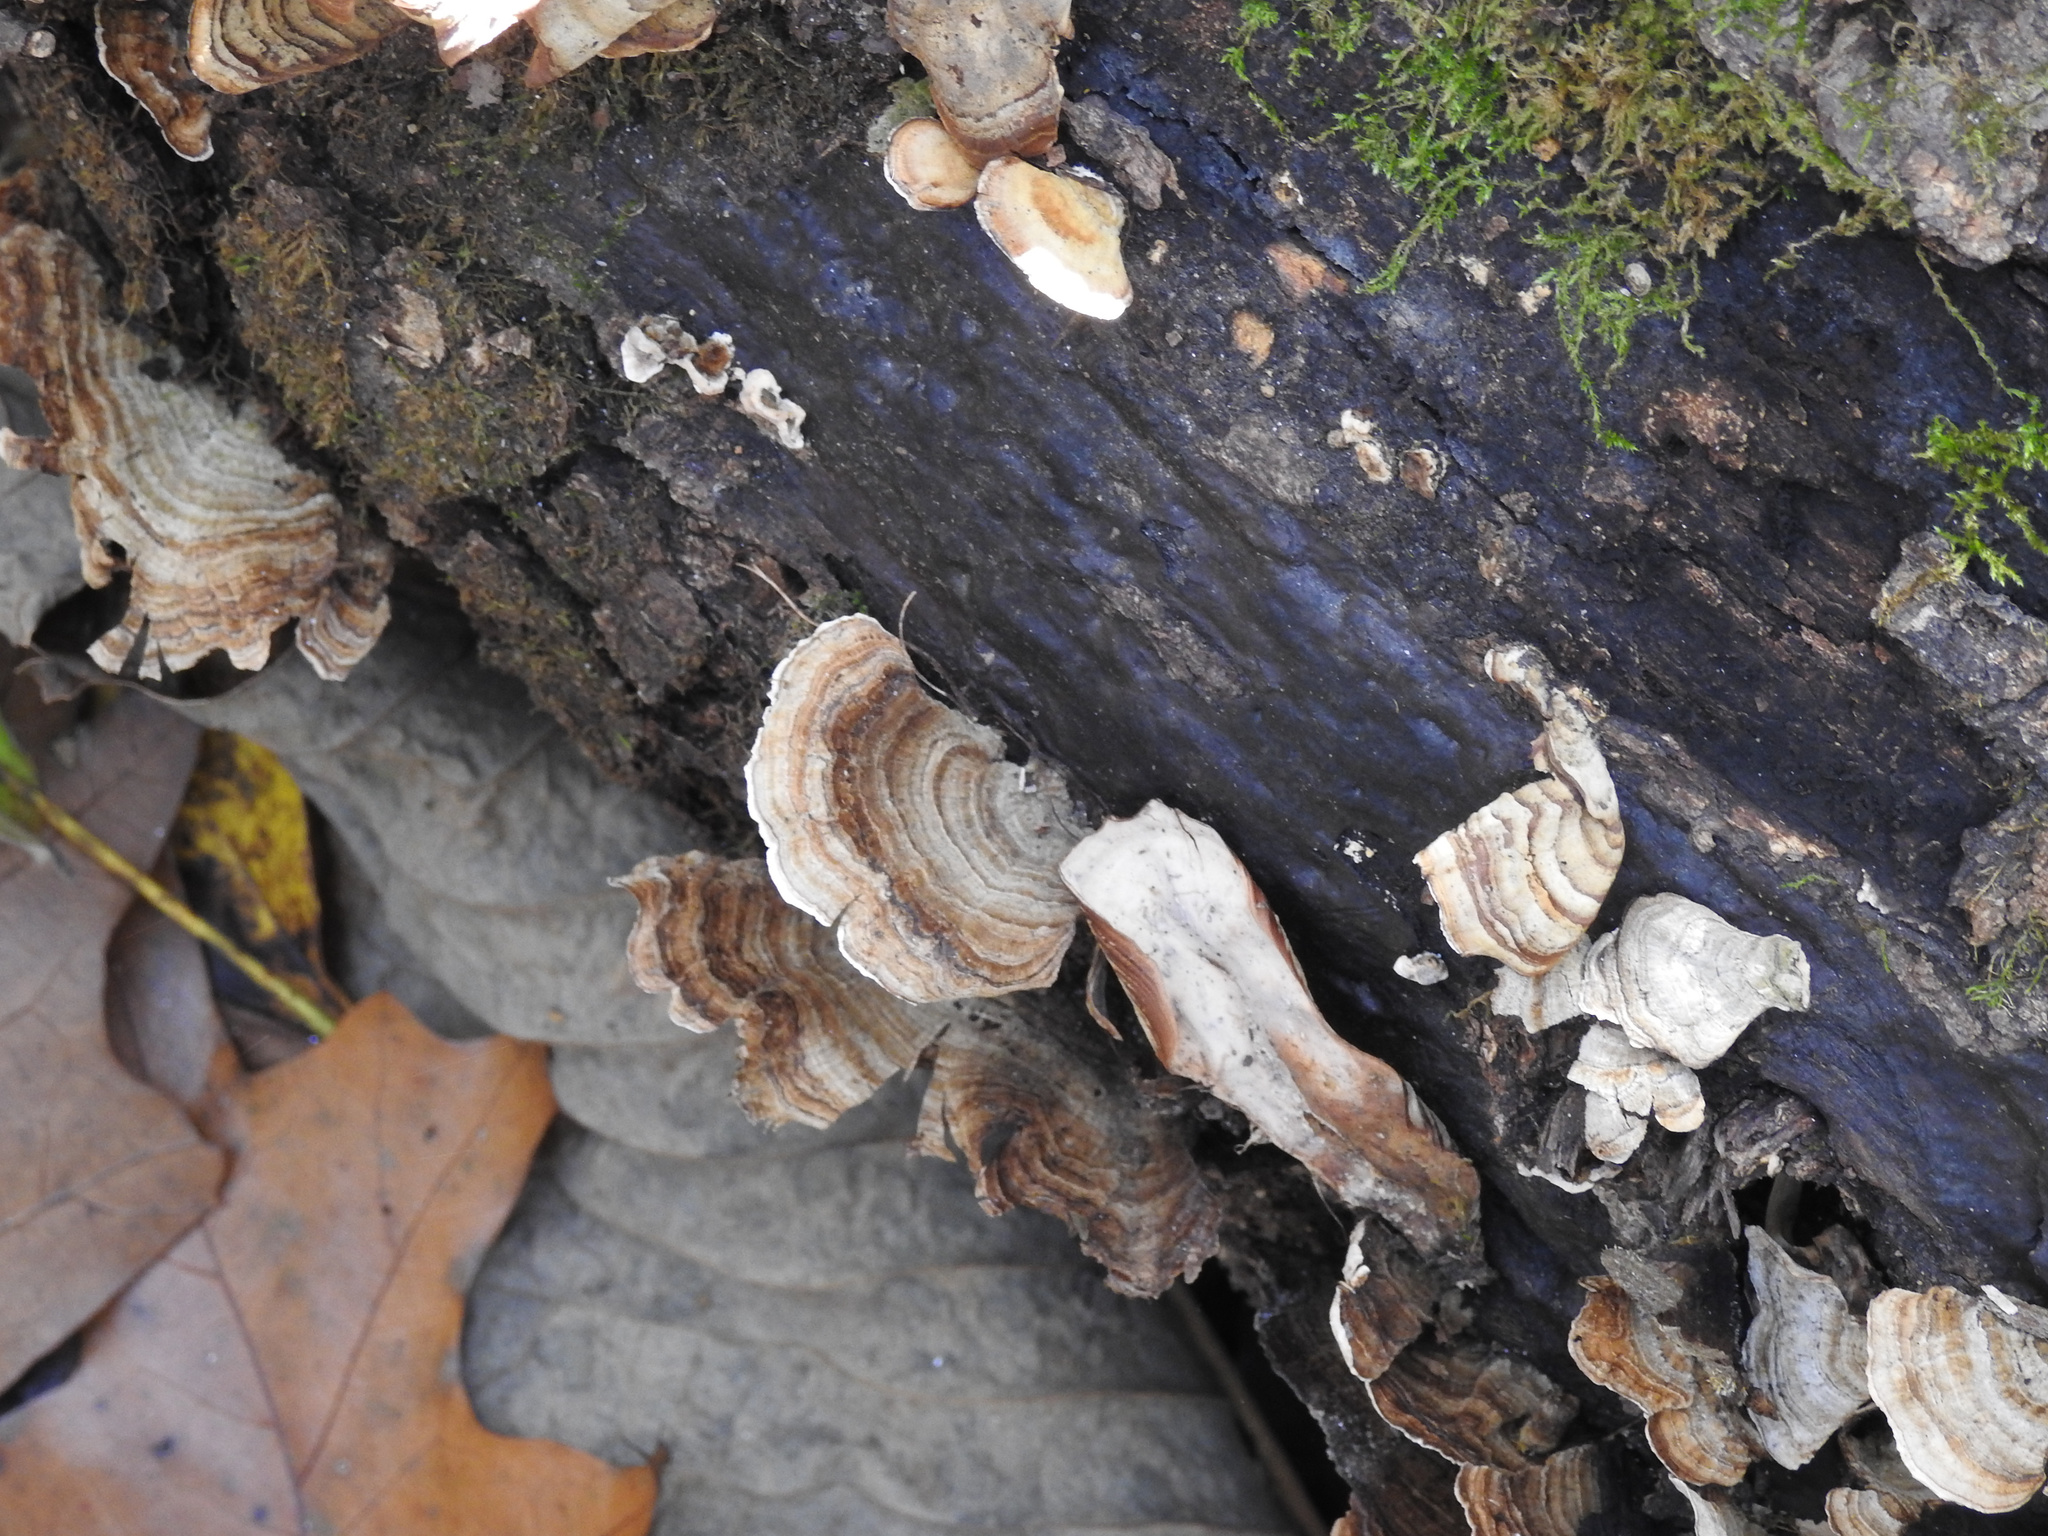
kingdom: Fungi
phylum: Basidiomycota
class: Agaricomycetes
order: Polyporales
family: Polyporaceae
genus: Trametes
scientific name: Trametes versicolor
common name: Turkeytail
